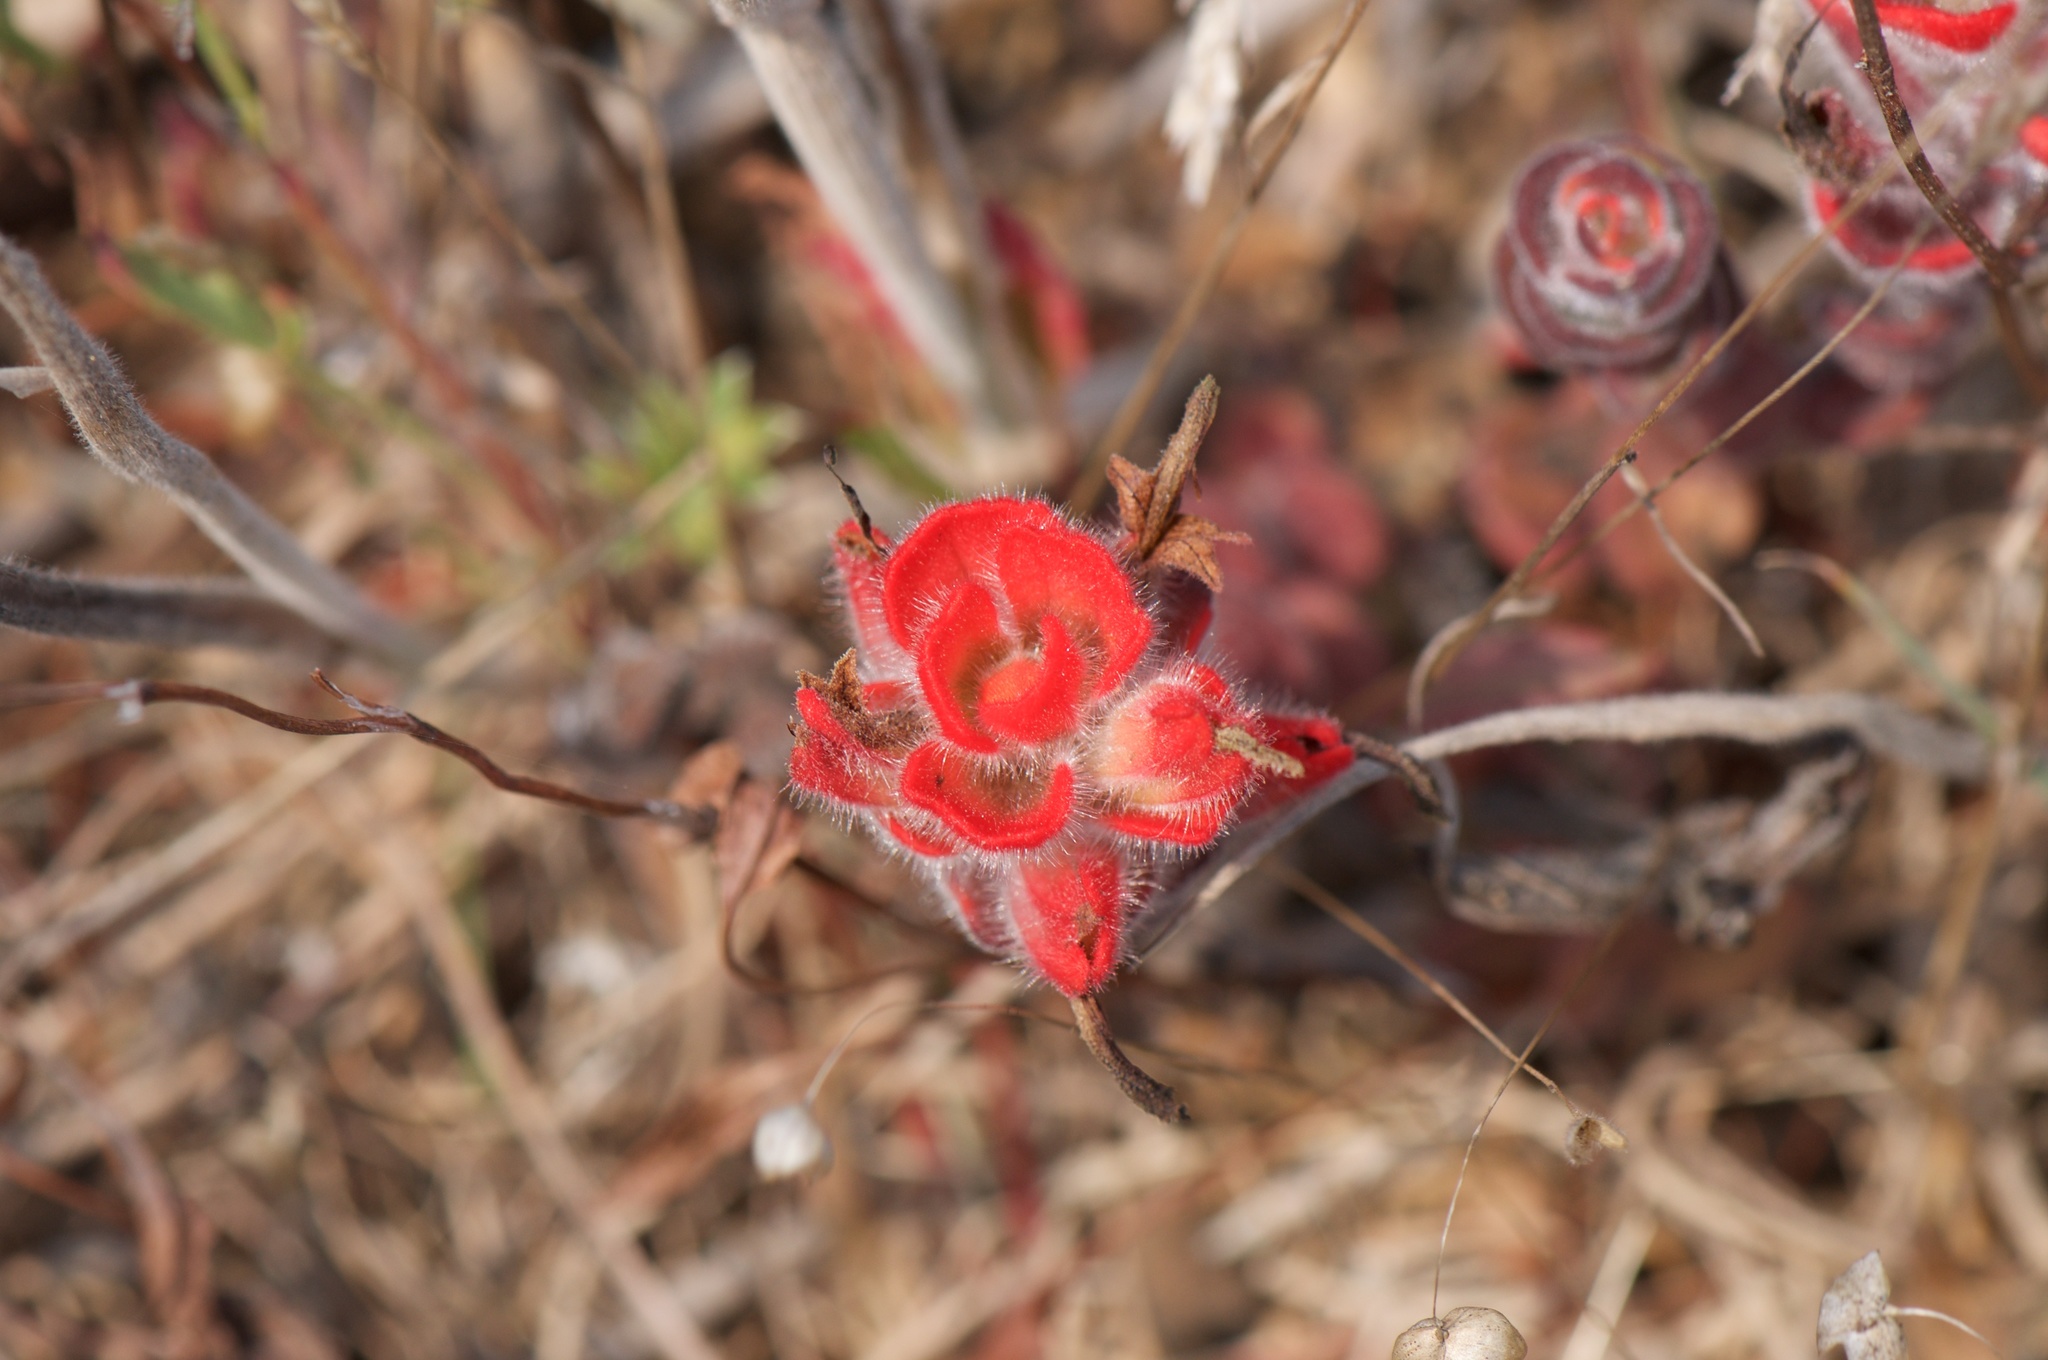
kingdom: Plantae
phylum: Tracheophyta
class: Magnoliopsida
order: Lamiales
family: Orobanchaceae
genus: Castilleja
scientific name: Castilleja mendocinensis
